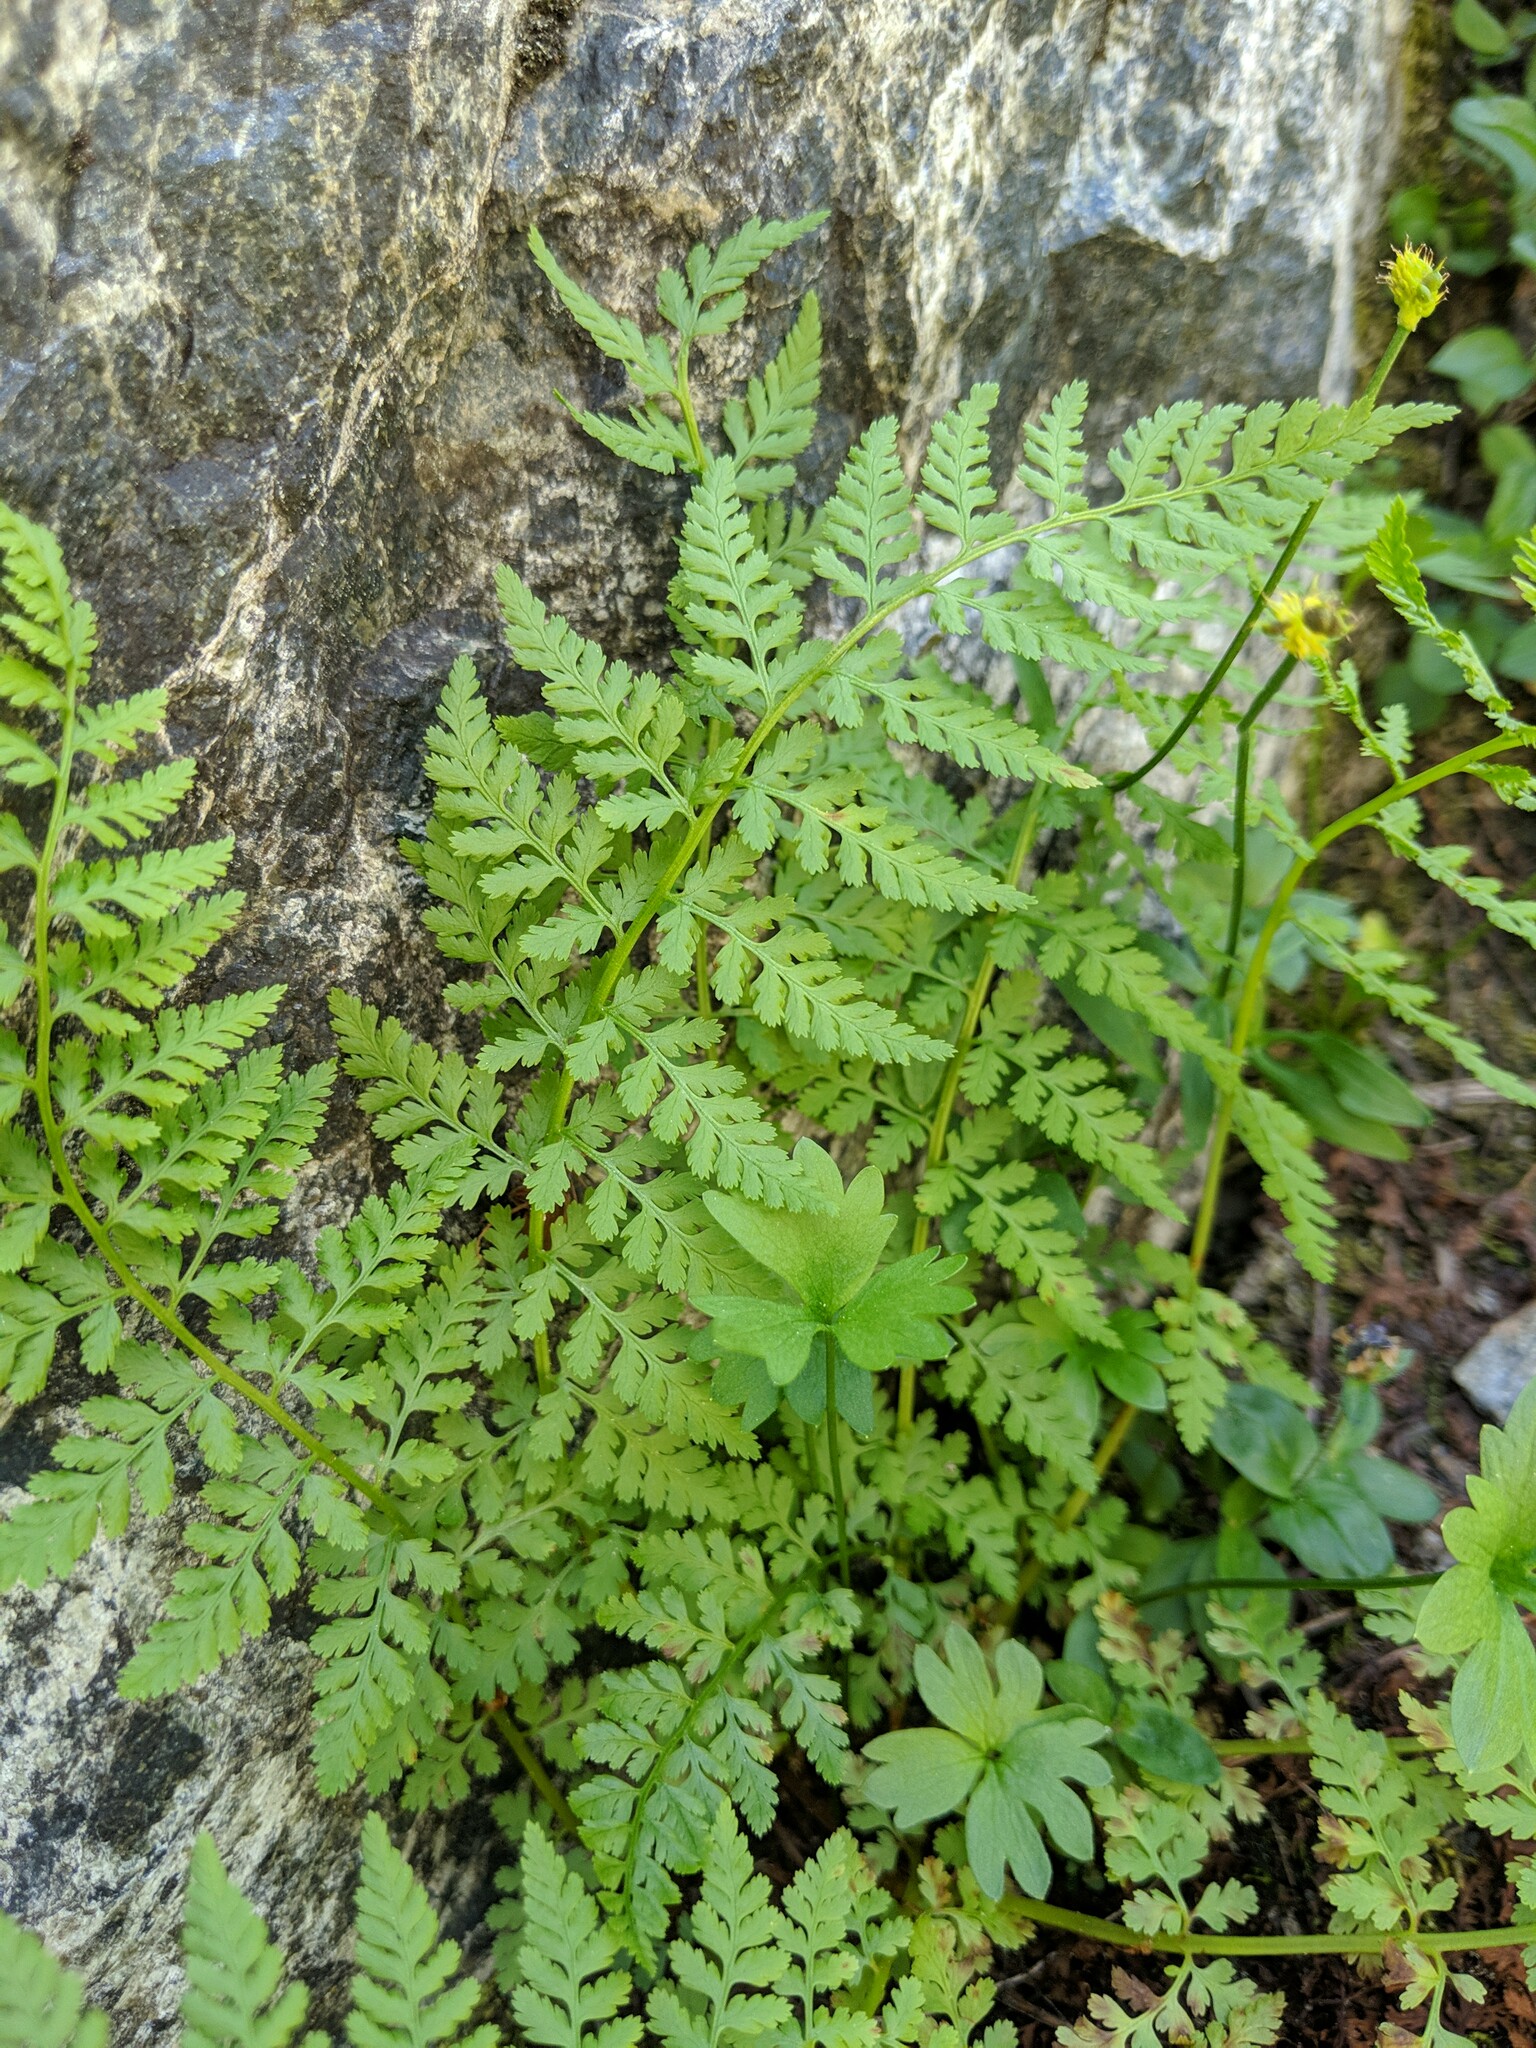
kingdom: Plantae
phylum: Tracheophyta
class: Polypodiopsida
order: Polypodiales
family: Cystopteridaceae
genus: Cystopteris
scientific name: Cystopteris fragilis
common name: Brittle bladder fern
